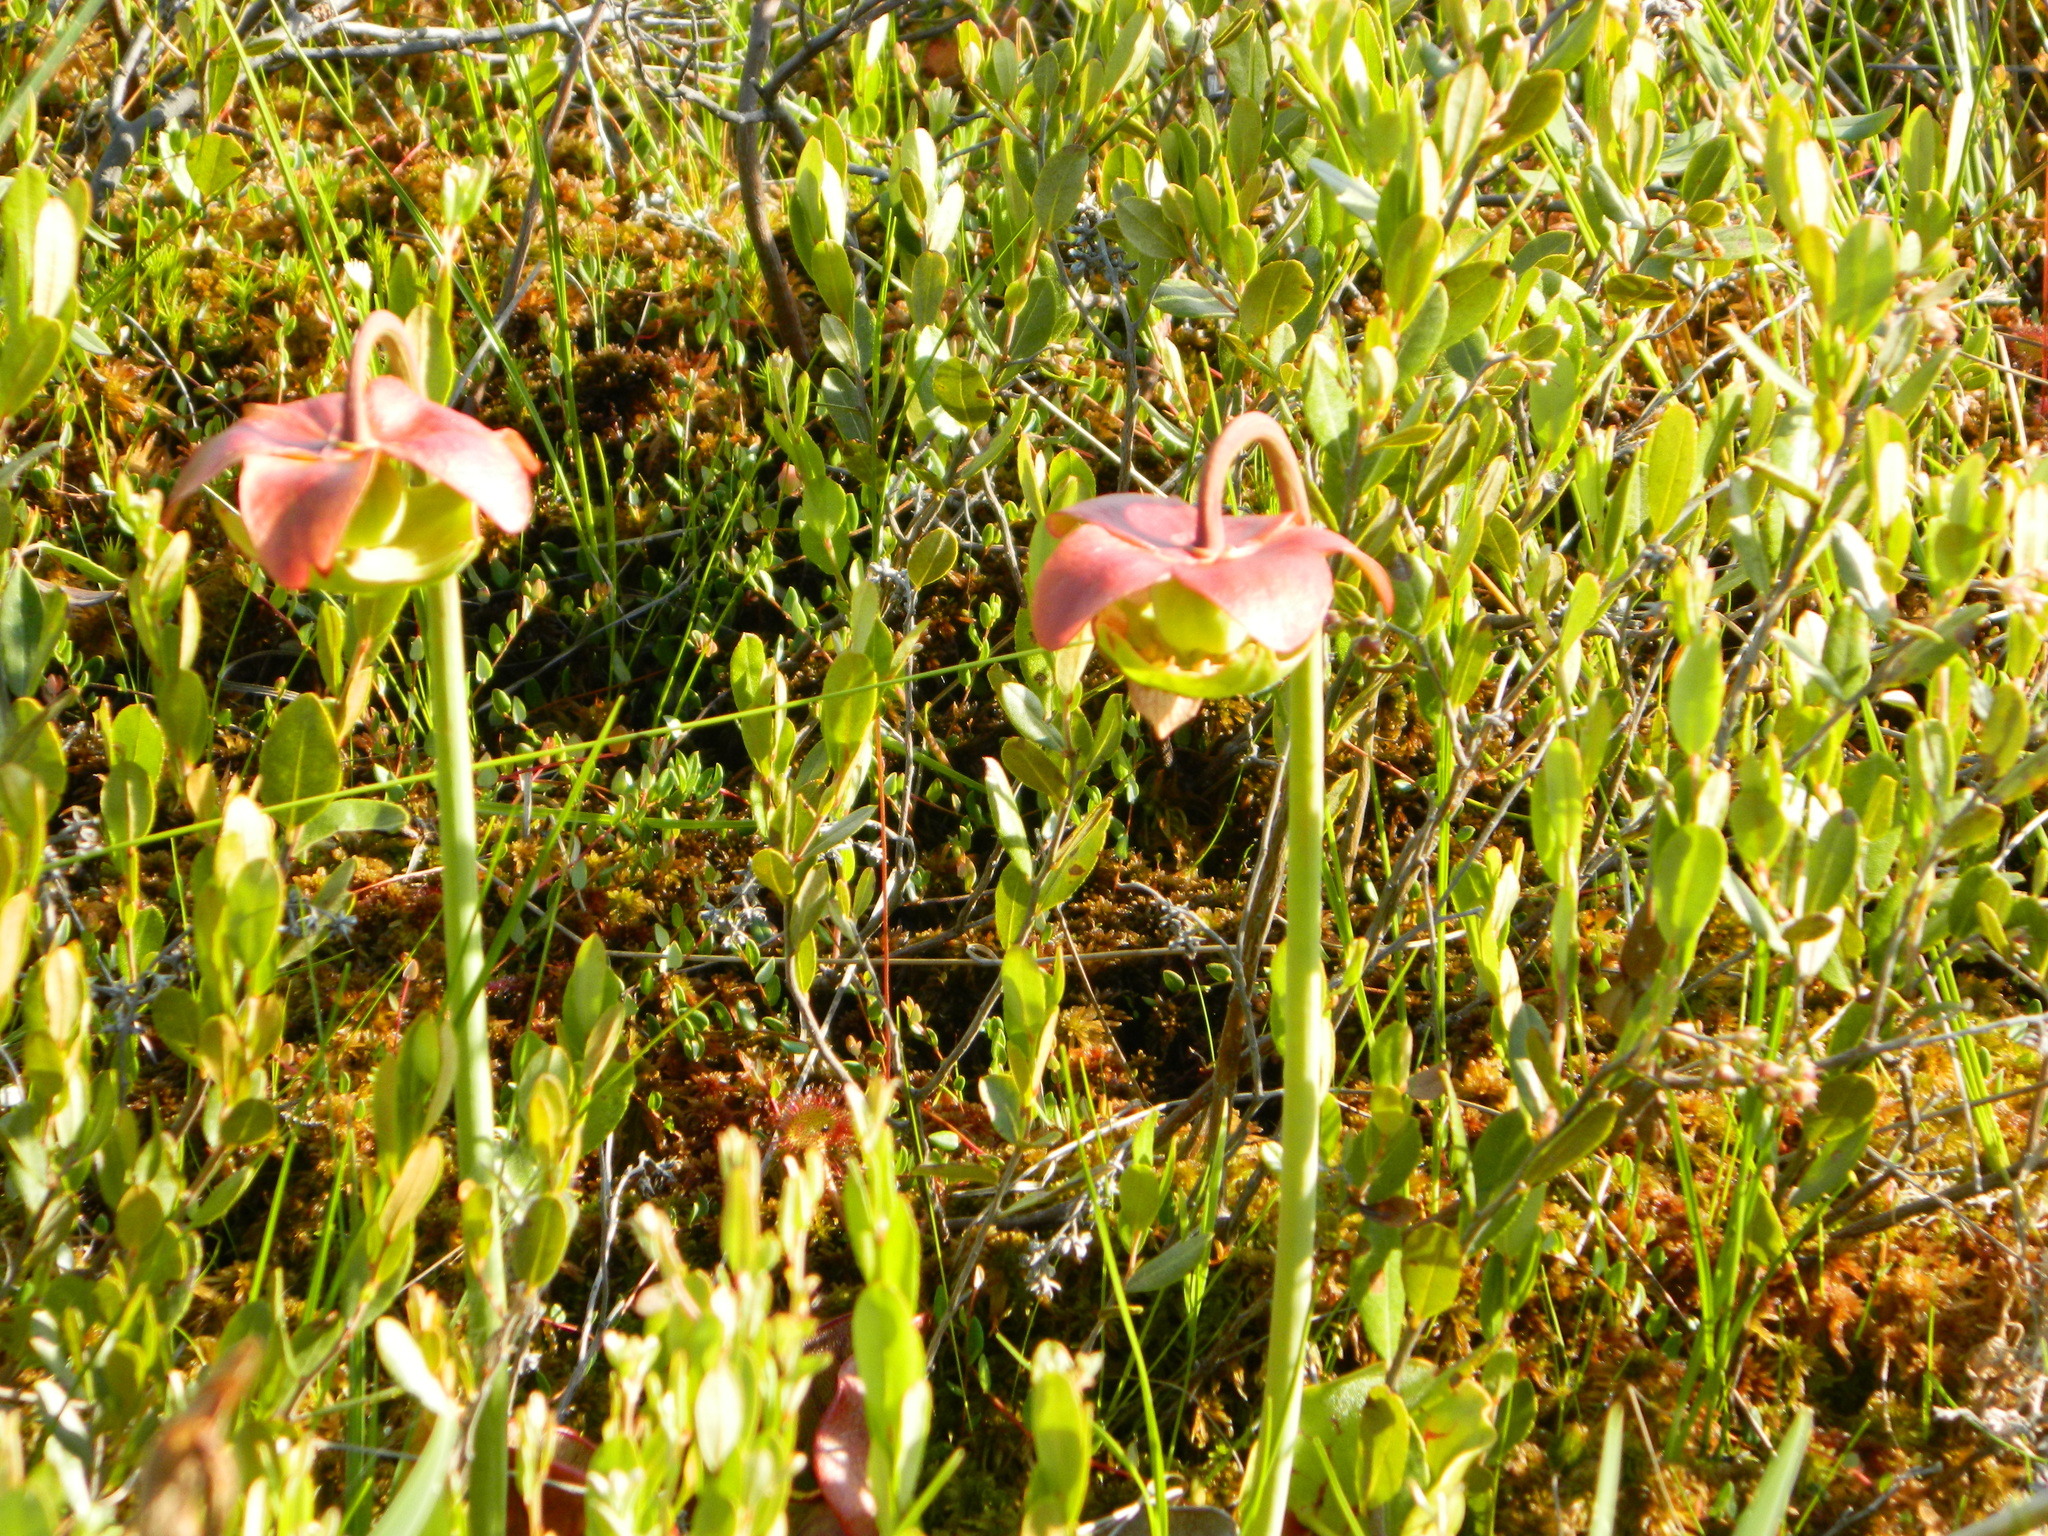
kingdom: Plantae
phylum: Tracheophyta
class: Magnoliopsida
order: Ericales
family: Sarraceniaceae
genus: Sarracenia
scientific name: Sarracenia purpurea
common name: Pitcherplant
